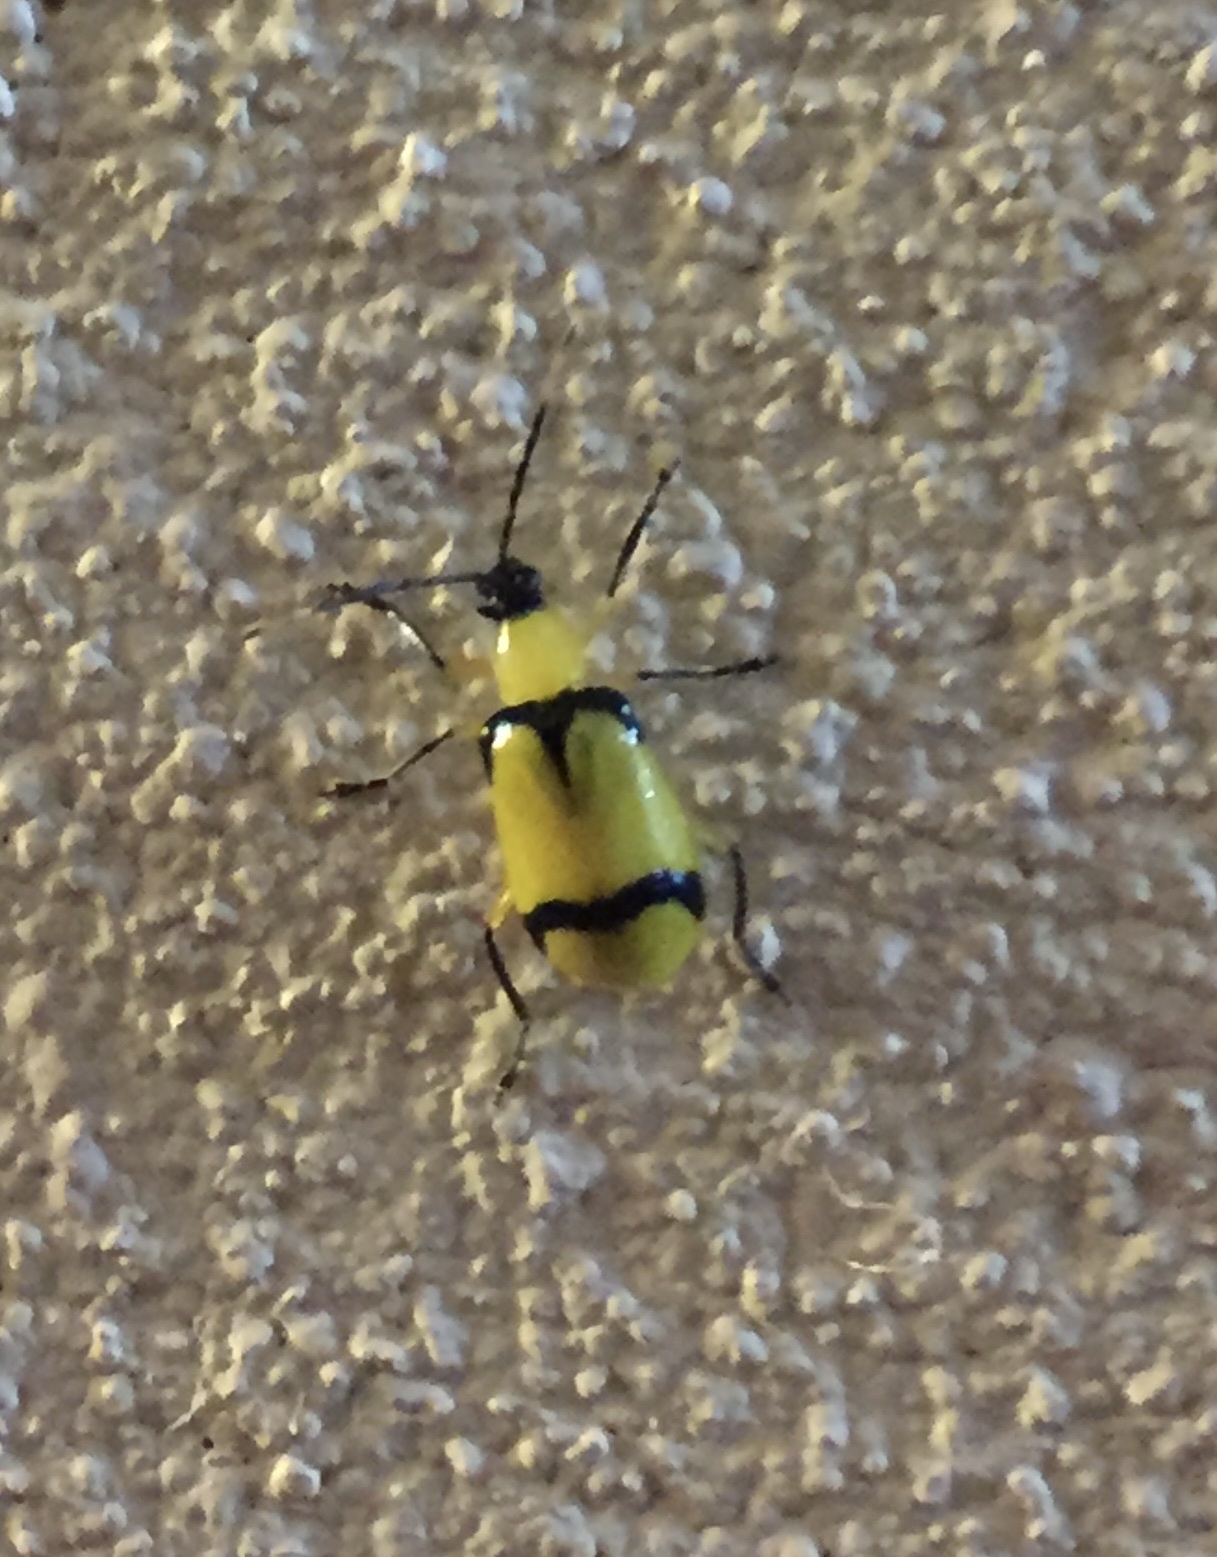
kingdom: Animalia
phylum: Arthropoda
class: Insecta
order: Coleoptera
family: Chrysomelidae
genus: Diabrotica
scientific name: Diabrotica
